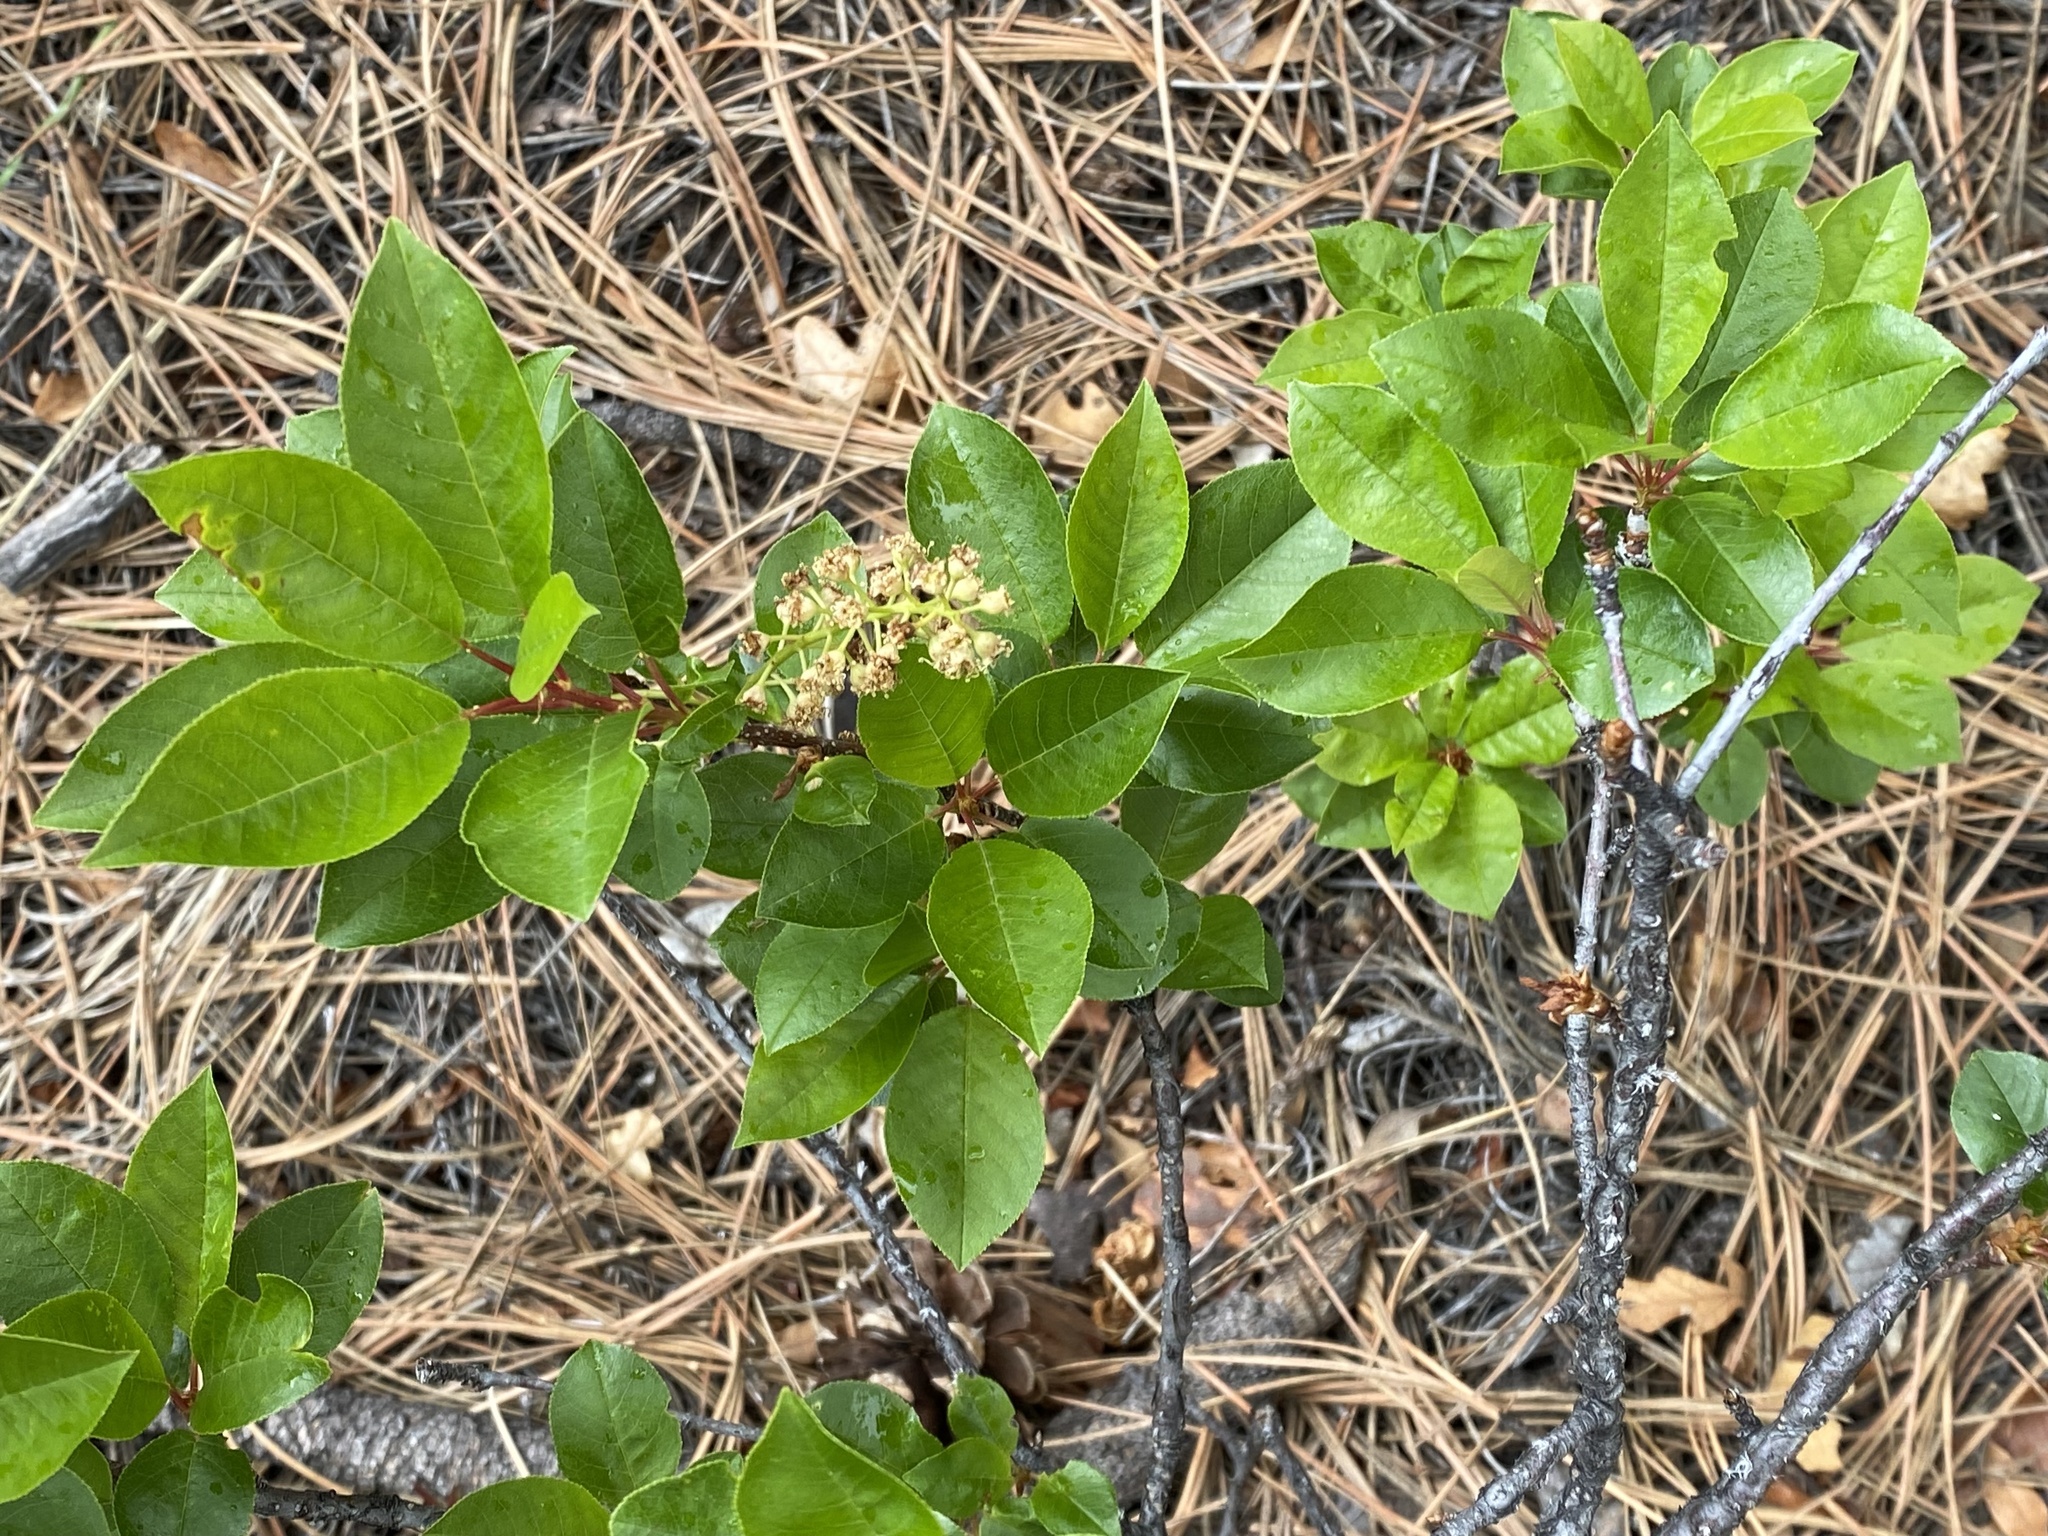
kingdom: Plantae
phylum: Tracheophyta
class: Magnoliopsida
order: Rosales
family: Rosaceae
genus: Prunus
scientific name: Prunus virginiana
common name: Chokecherry
